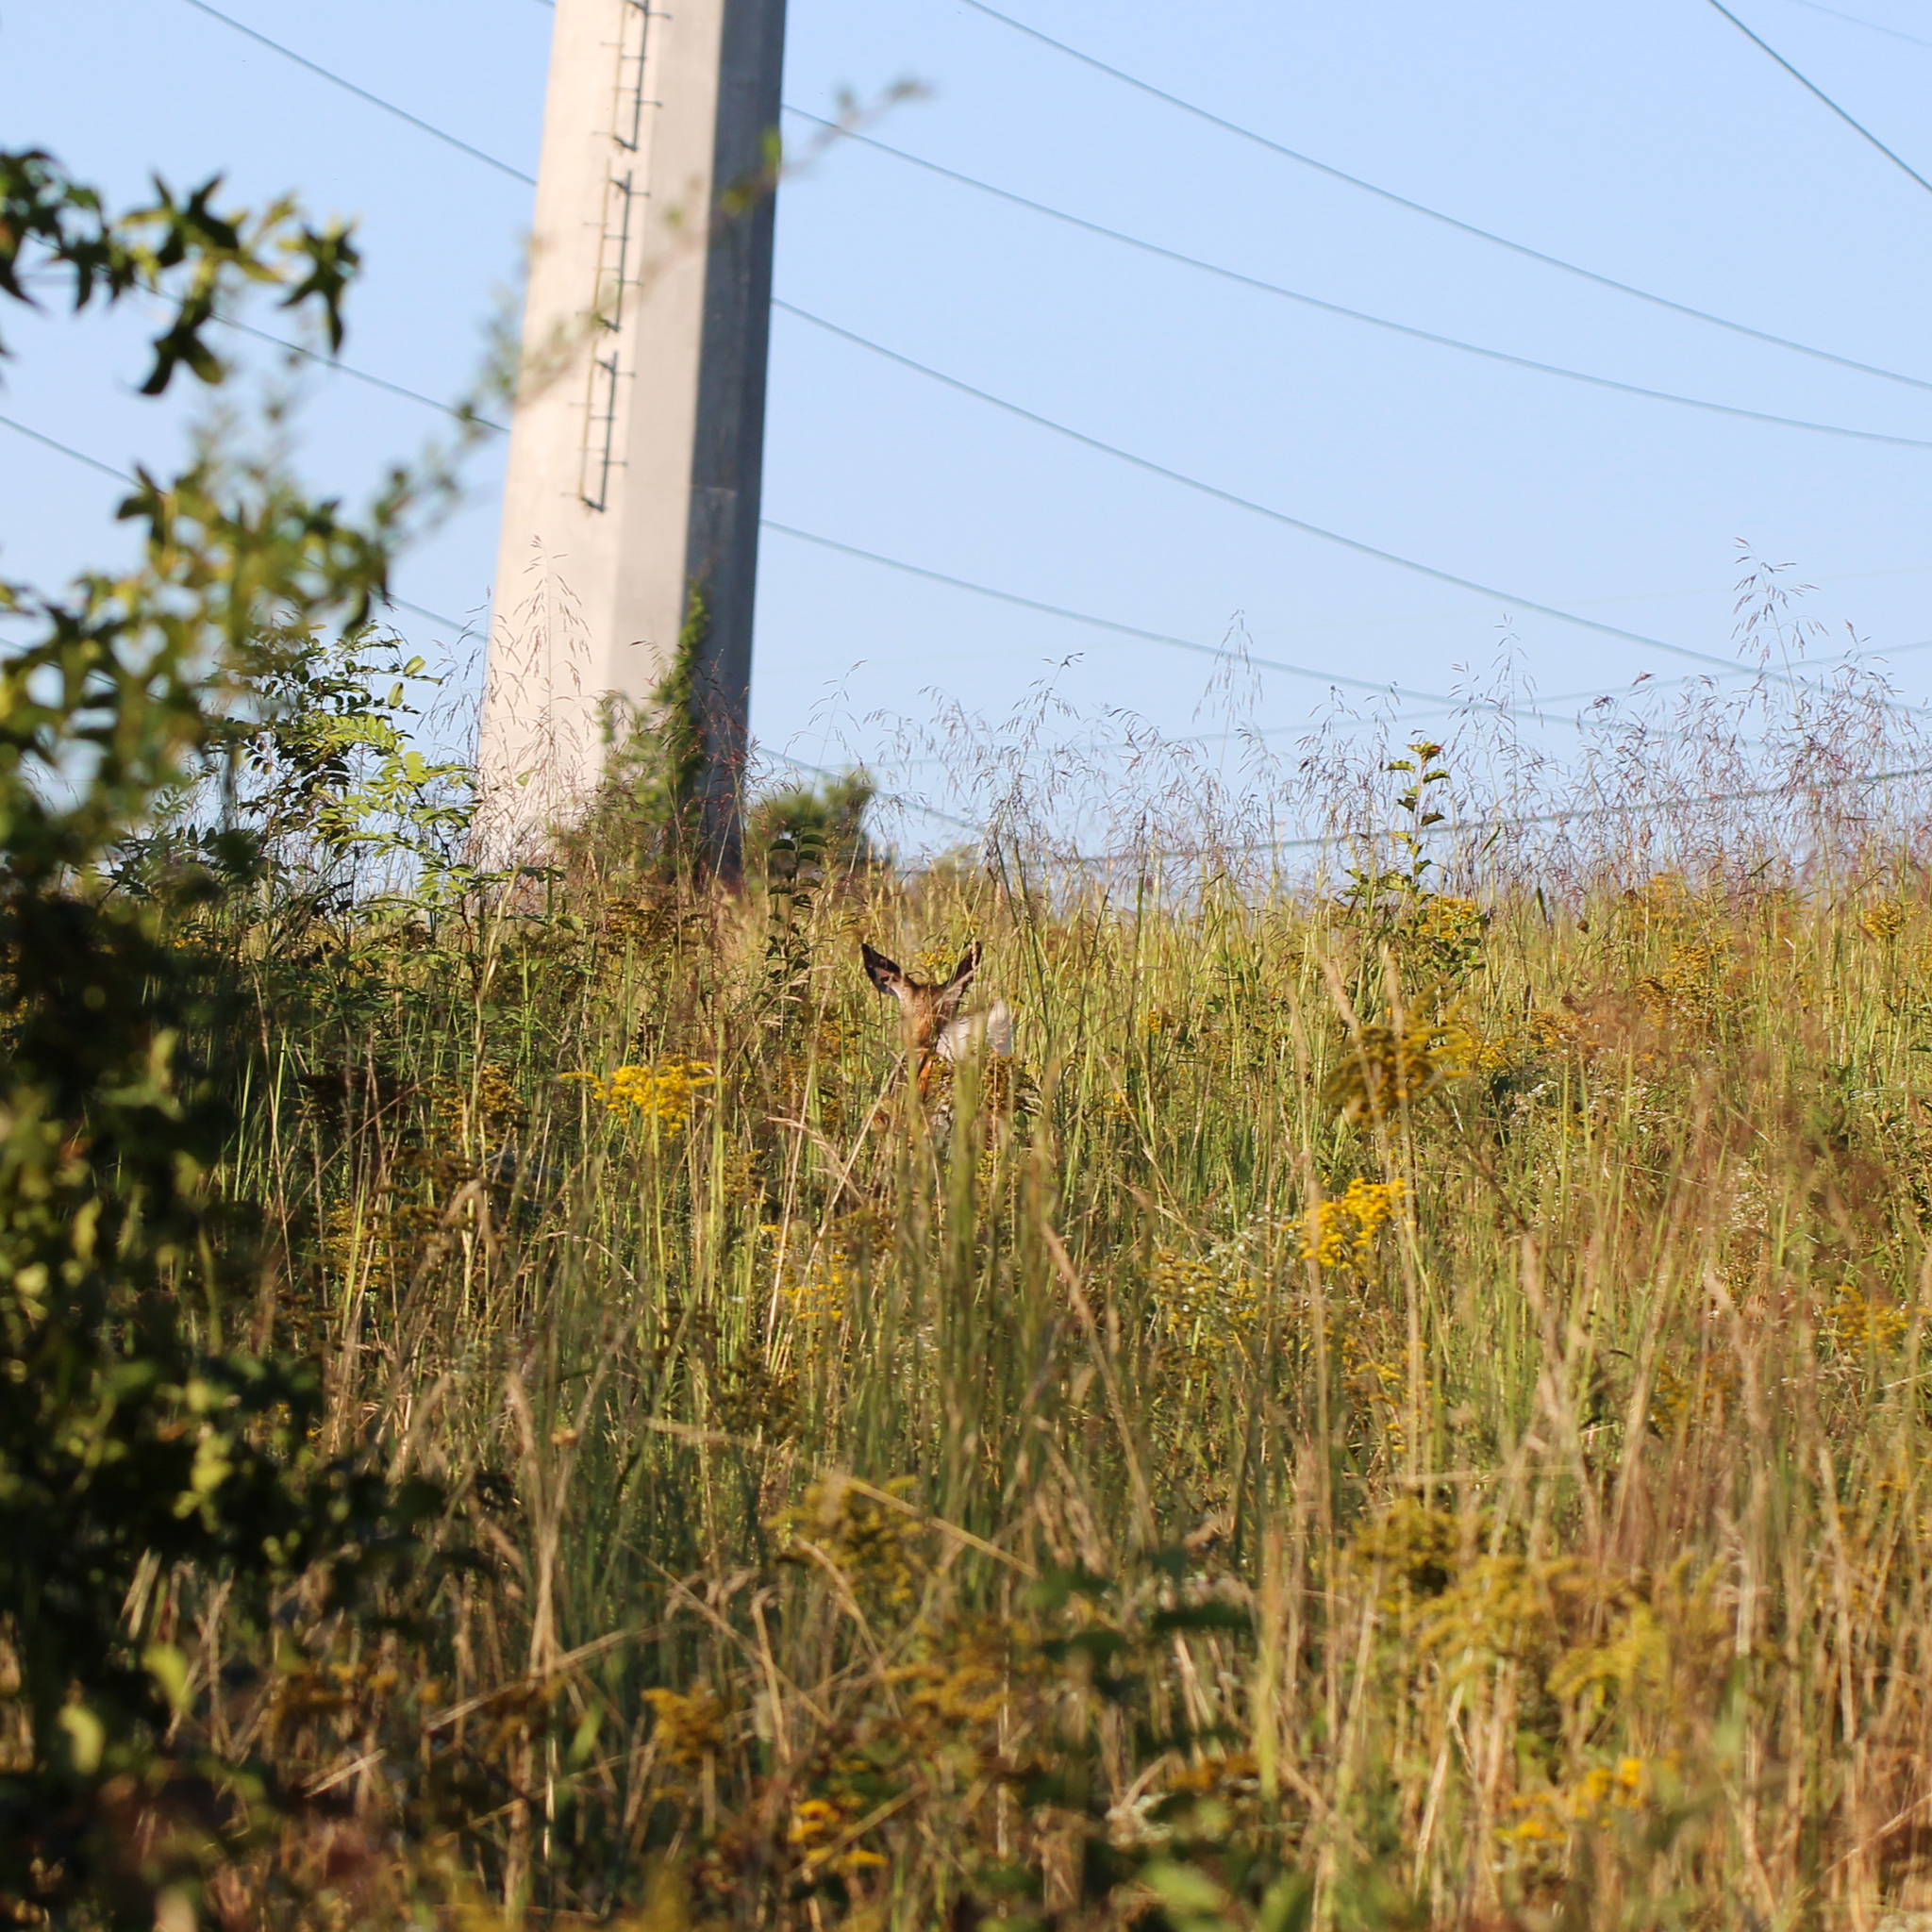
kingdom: Animalia
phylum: Chordata
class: Mammalia
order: Artiodactyla
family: Cervidae
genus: Odocoileus
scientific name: Odocoileus virginianus
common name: White-tailed deer
